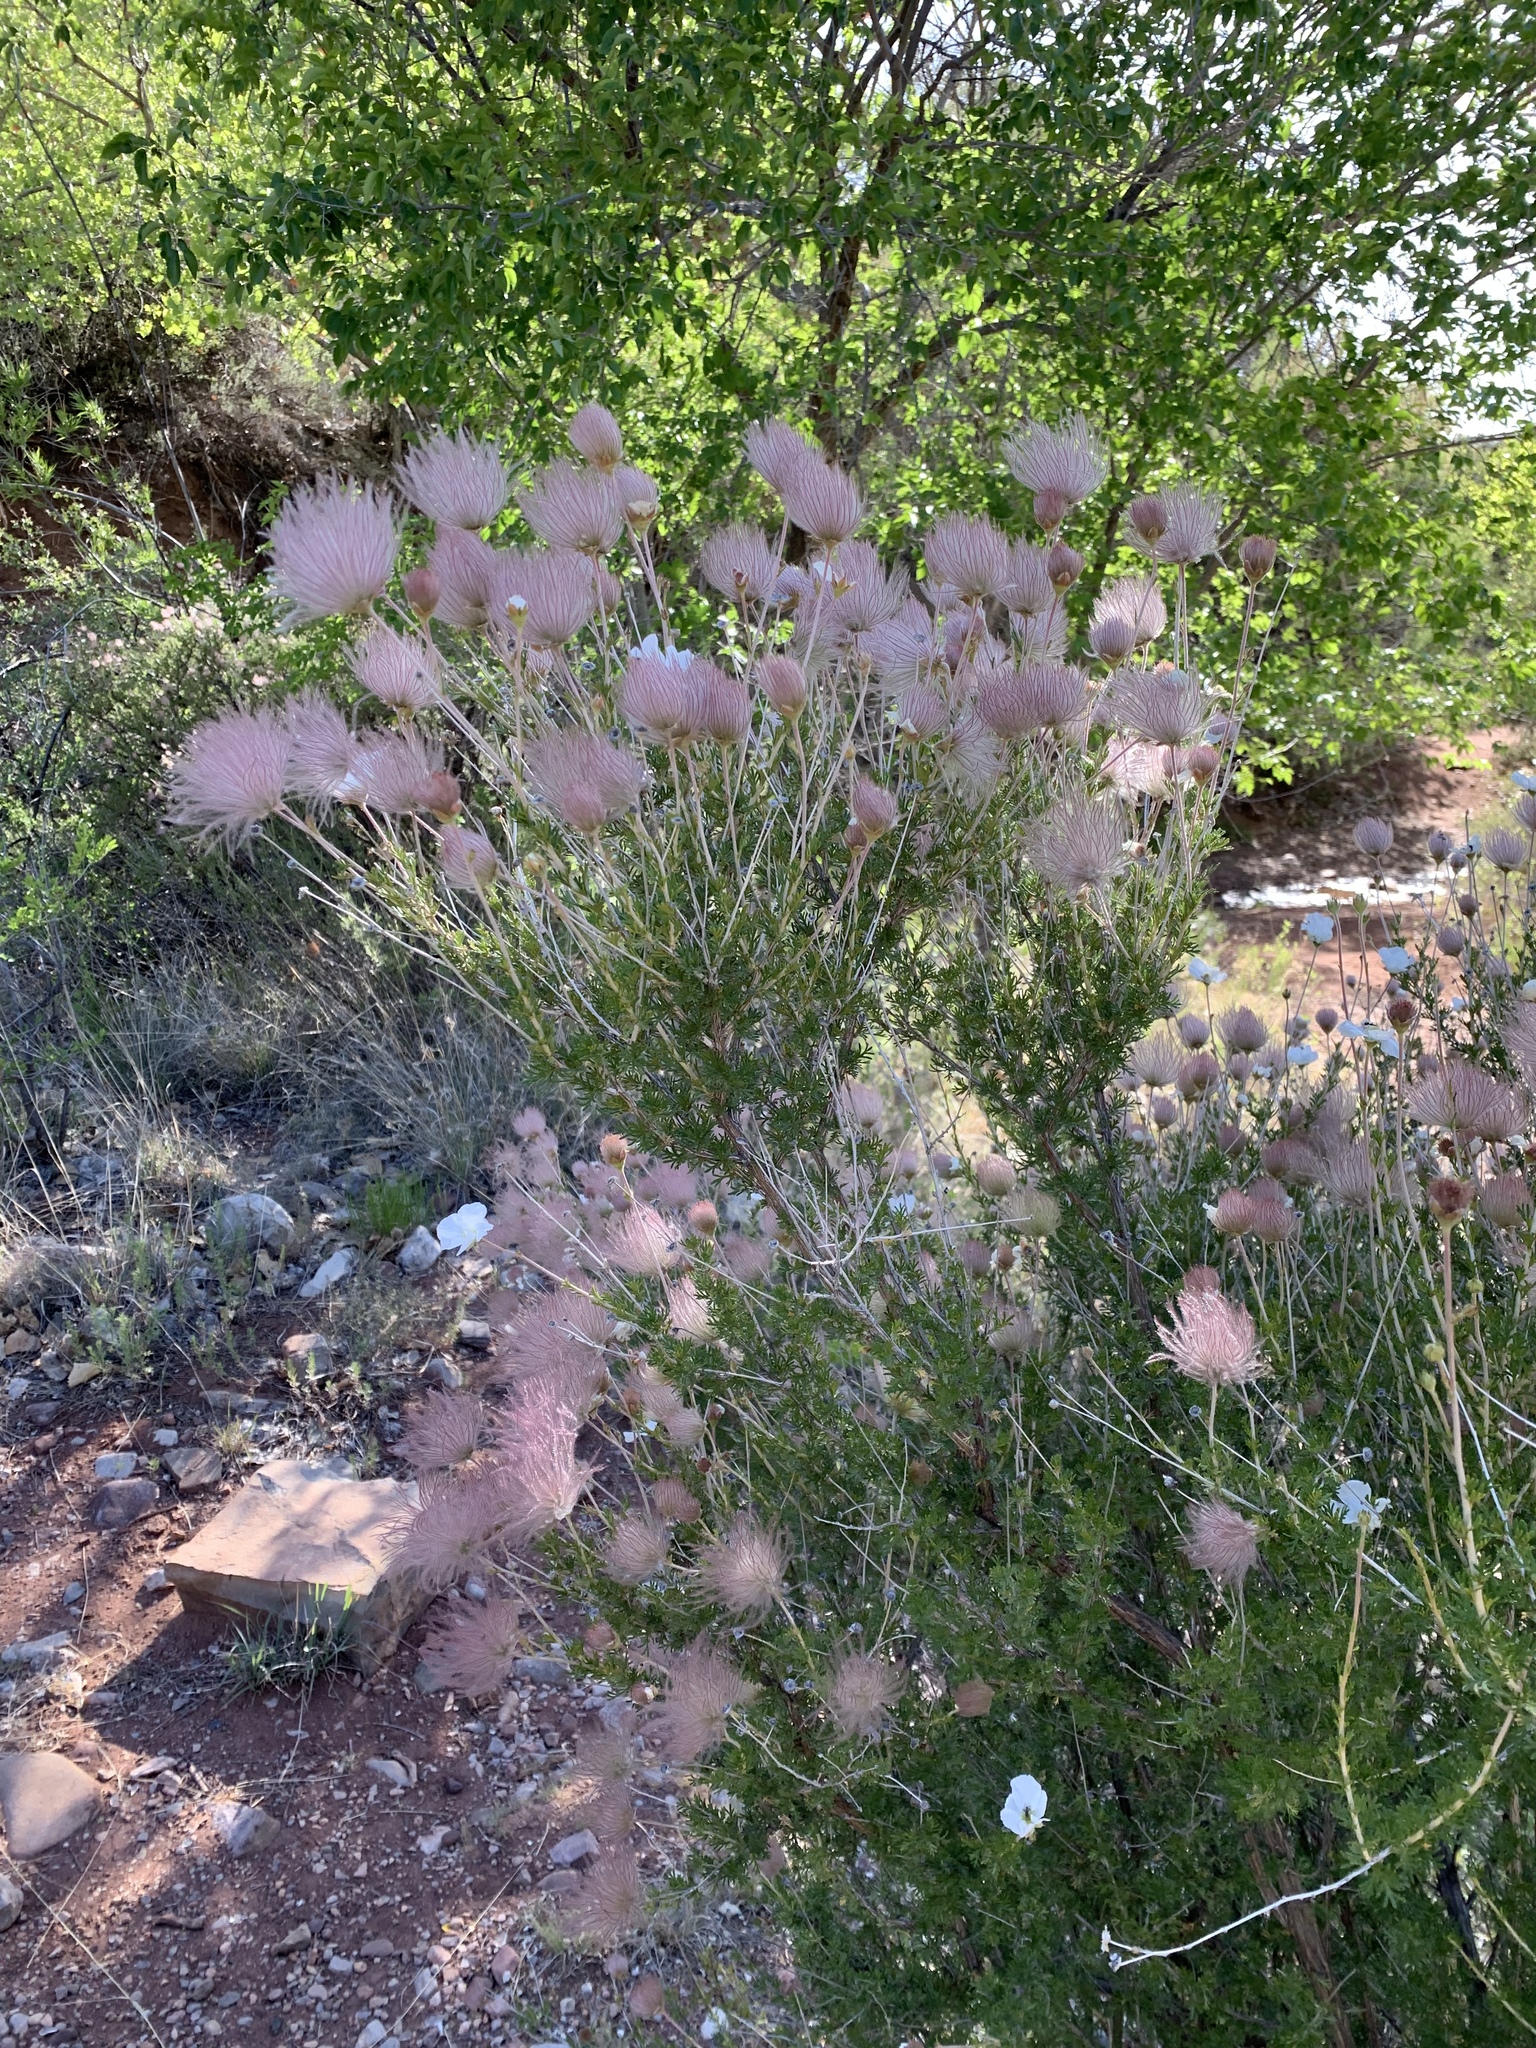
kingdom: Plantae
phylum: Tracheophyta
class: Magnoliopsida
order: Rosales
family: Rosaceae
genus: Fallugia
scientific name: Fallugia paradoxa
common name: Apache-plume
